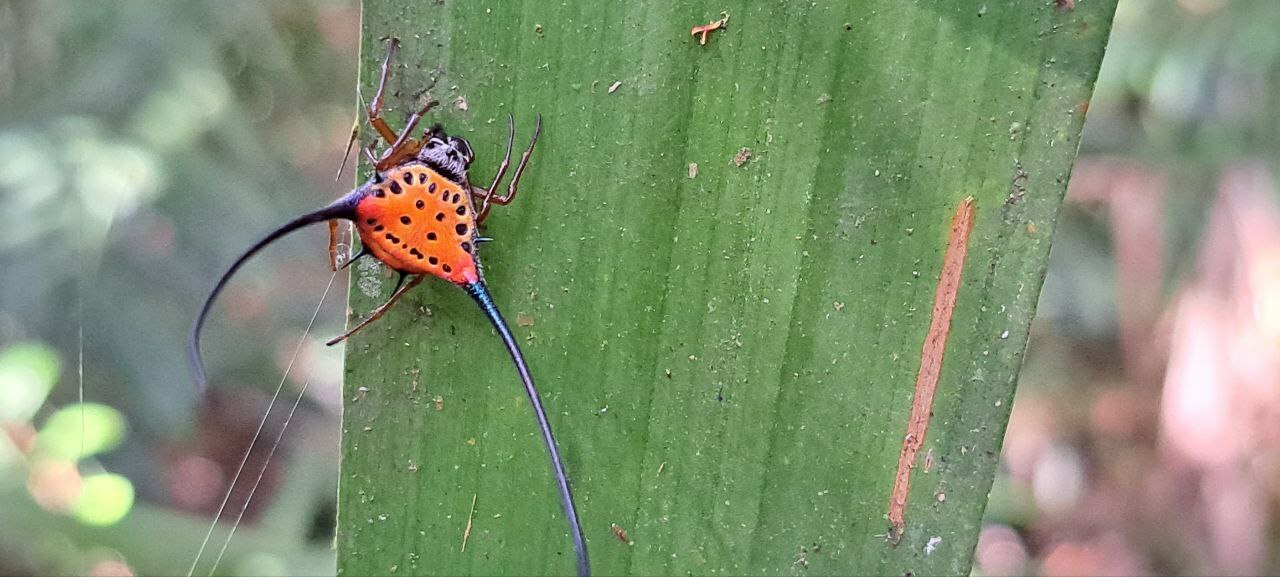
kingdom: Animalia
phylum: Arthropoda
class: Arachnida
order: Araneae
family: Araneidae
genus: Macracantha
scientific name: Macracantha arcuata
